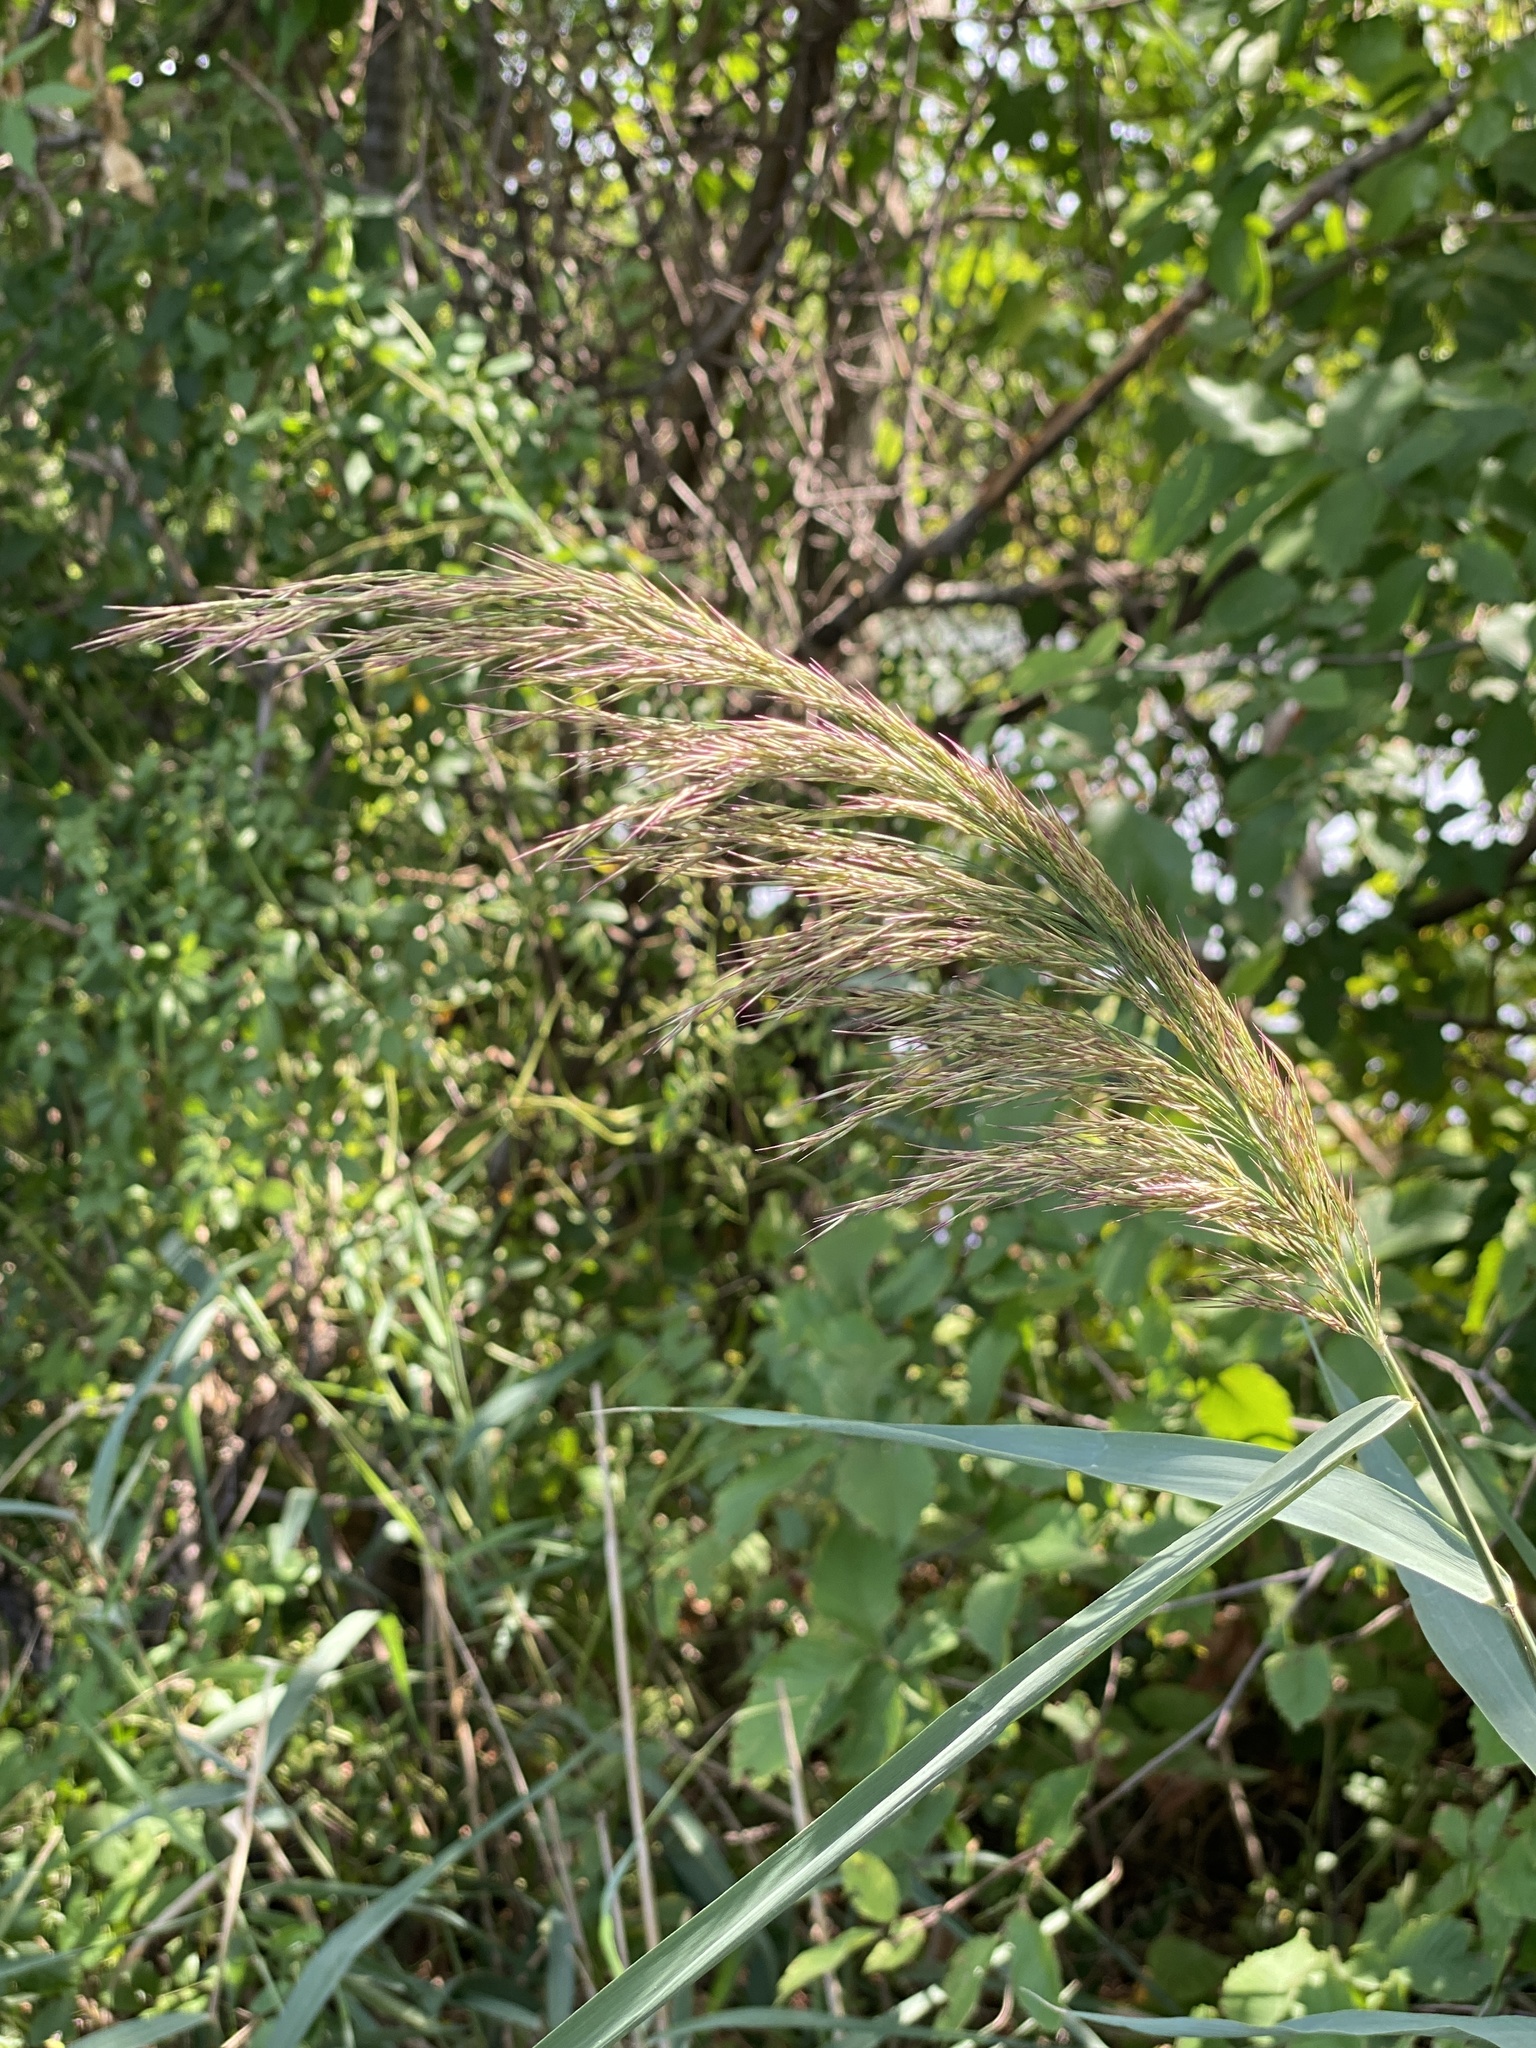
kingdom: Plantae
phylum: Tracheophyta
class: Liliopsida
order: Poales
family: Poaceae
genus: Phragmites
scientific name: Phragmites australis
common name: Common reed
